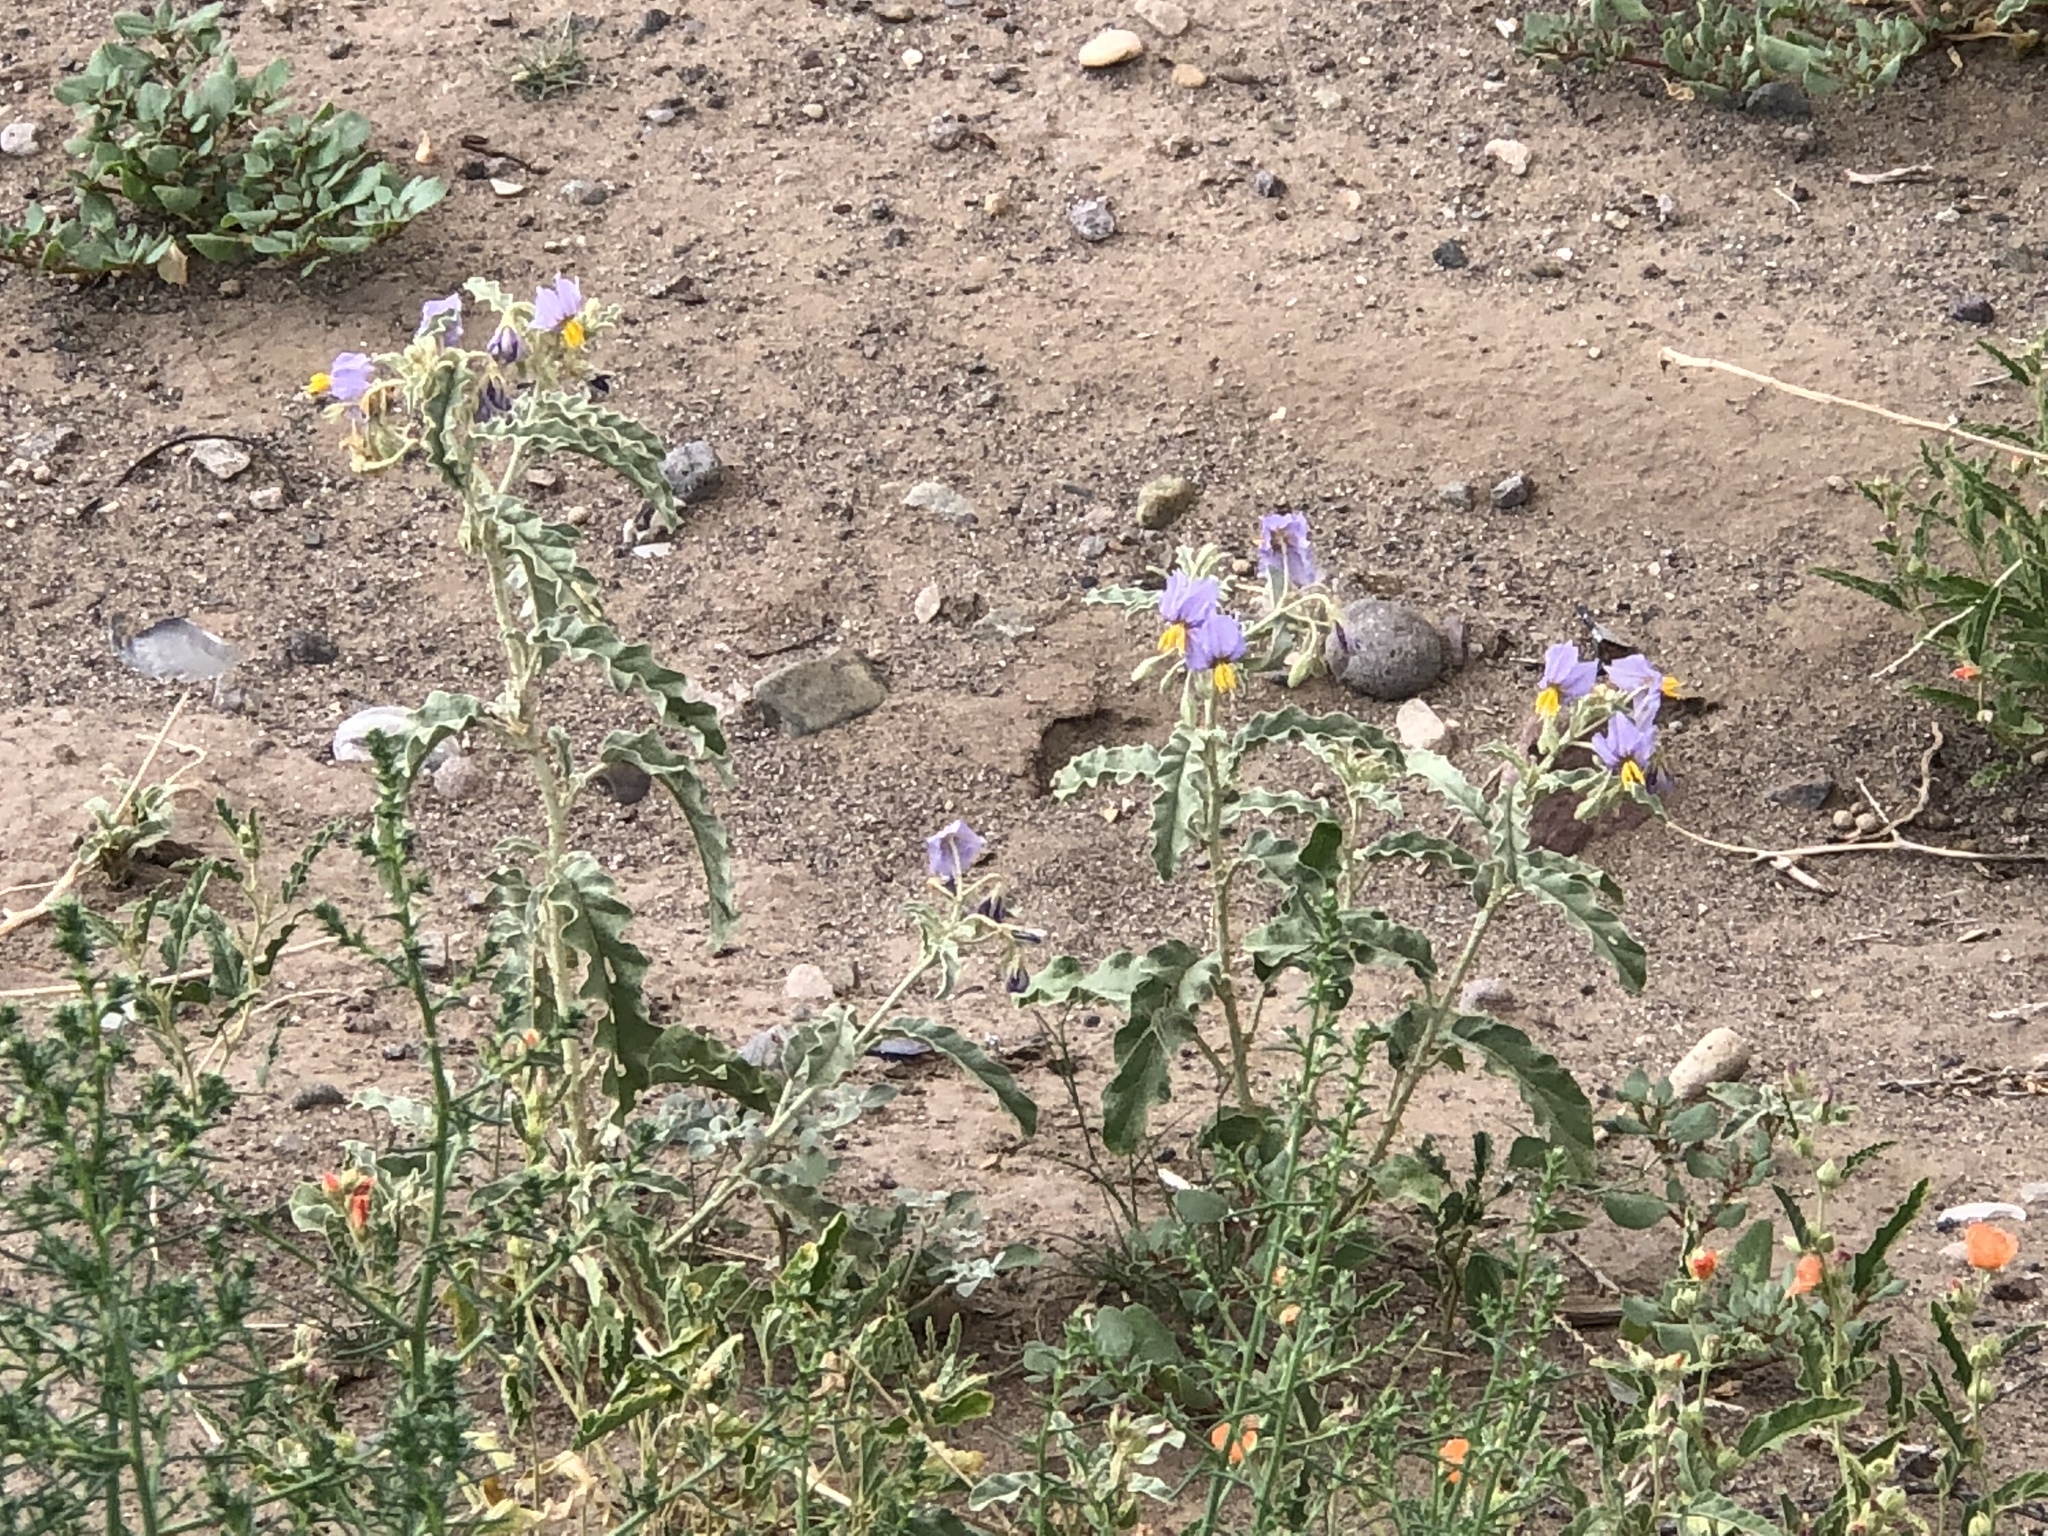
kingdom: Plantae
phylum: Tracheophyta
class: Magnoliopsida
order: Solanales
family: Solanaceae
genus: Solanum
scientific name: Solanum elaeagnifolium
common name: Silverleaf nightshade
